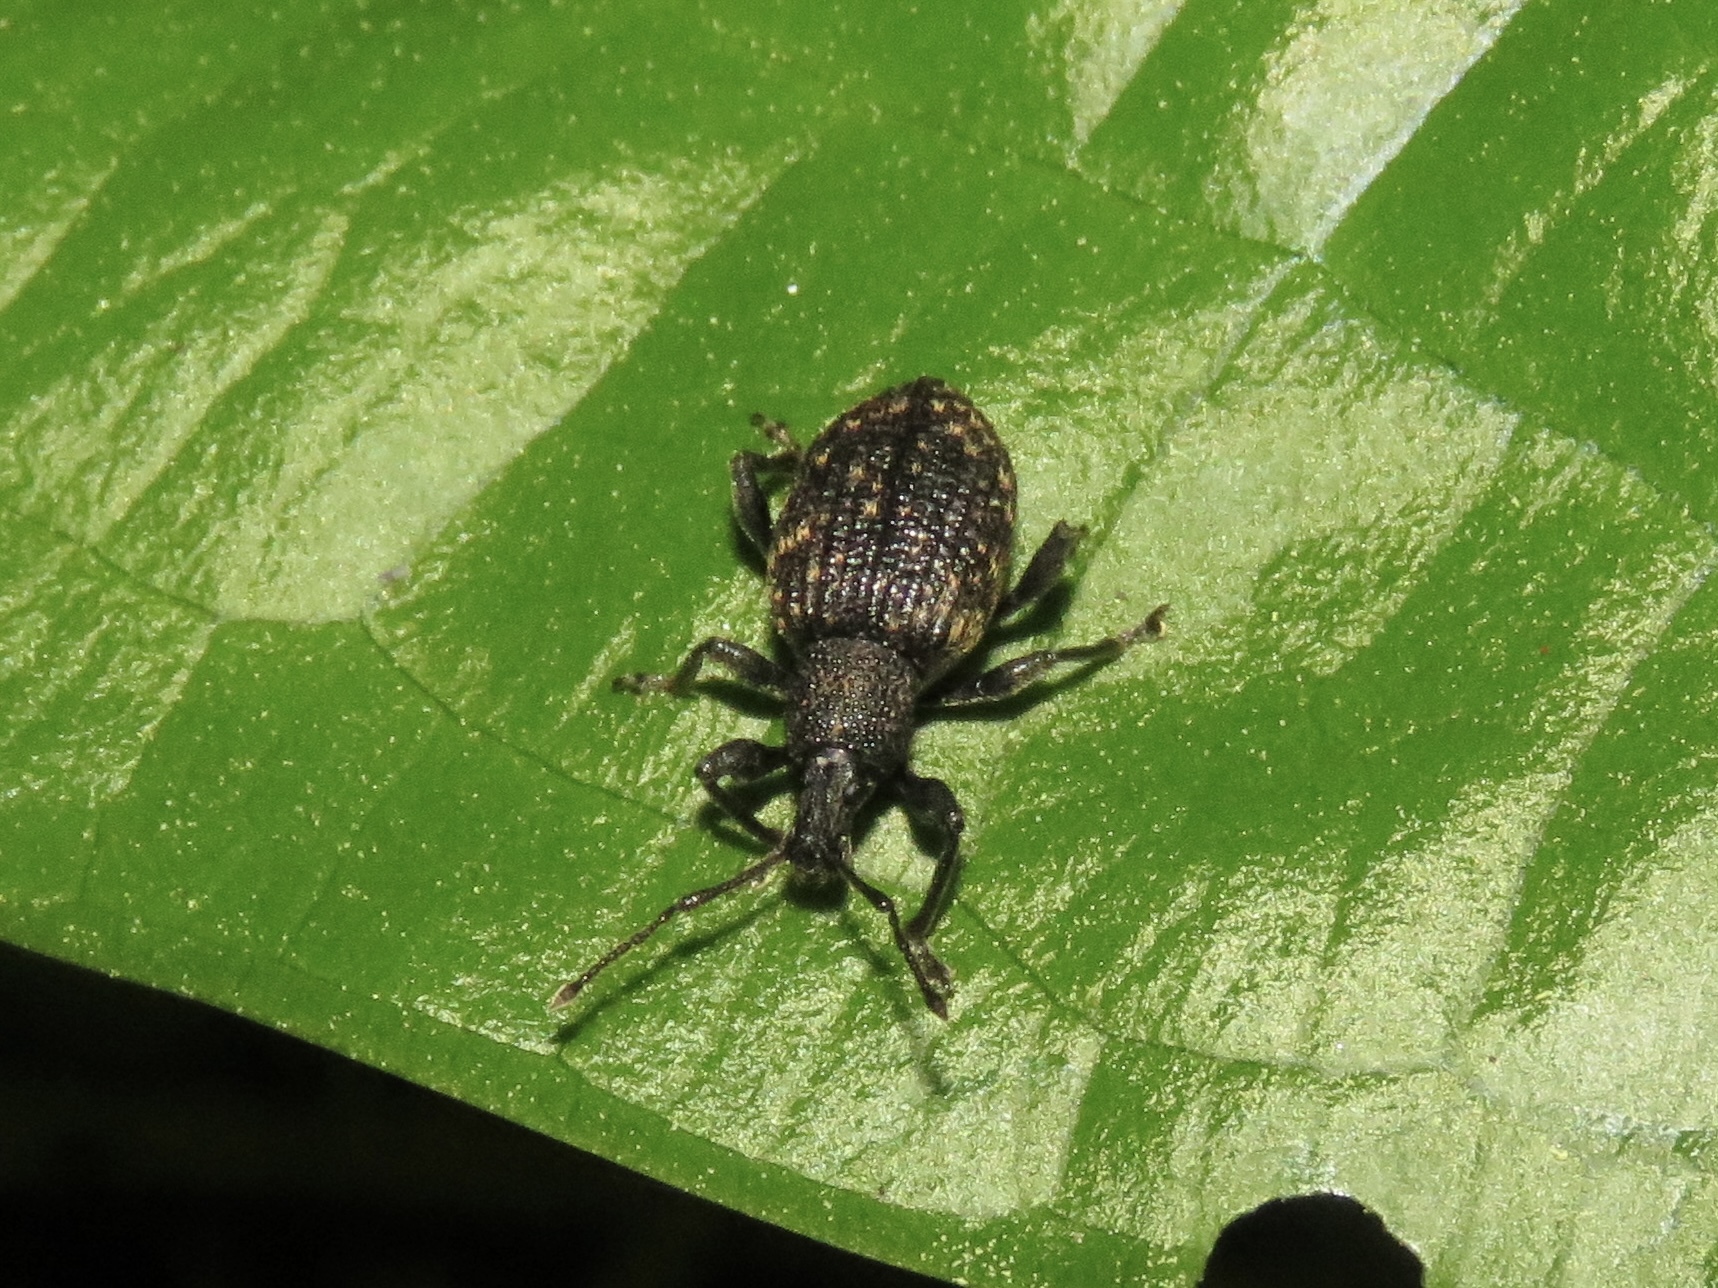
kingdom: Animalia
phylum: Arthropoda
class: Insecta
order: Coleoptera
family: Curculionidae
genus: Otiorhynchus
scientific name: Otiorhynchus sulcatus
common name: Black vine weevil
